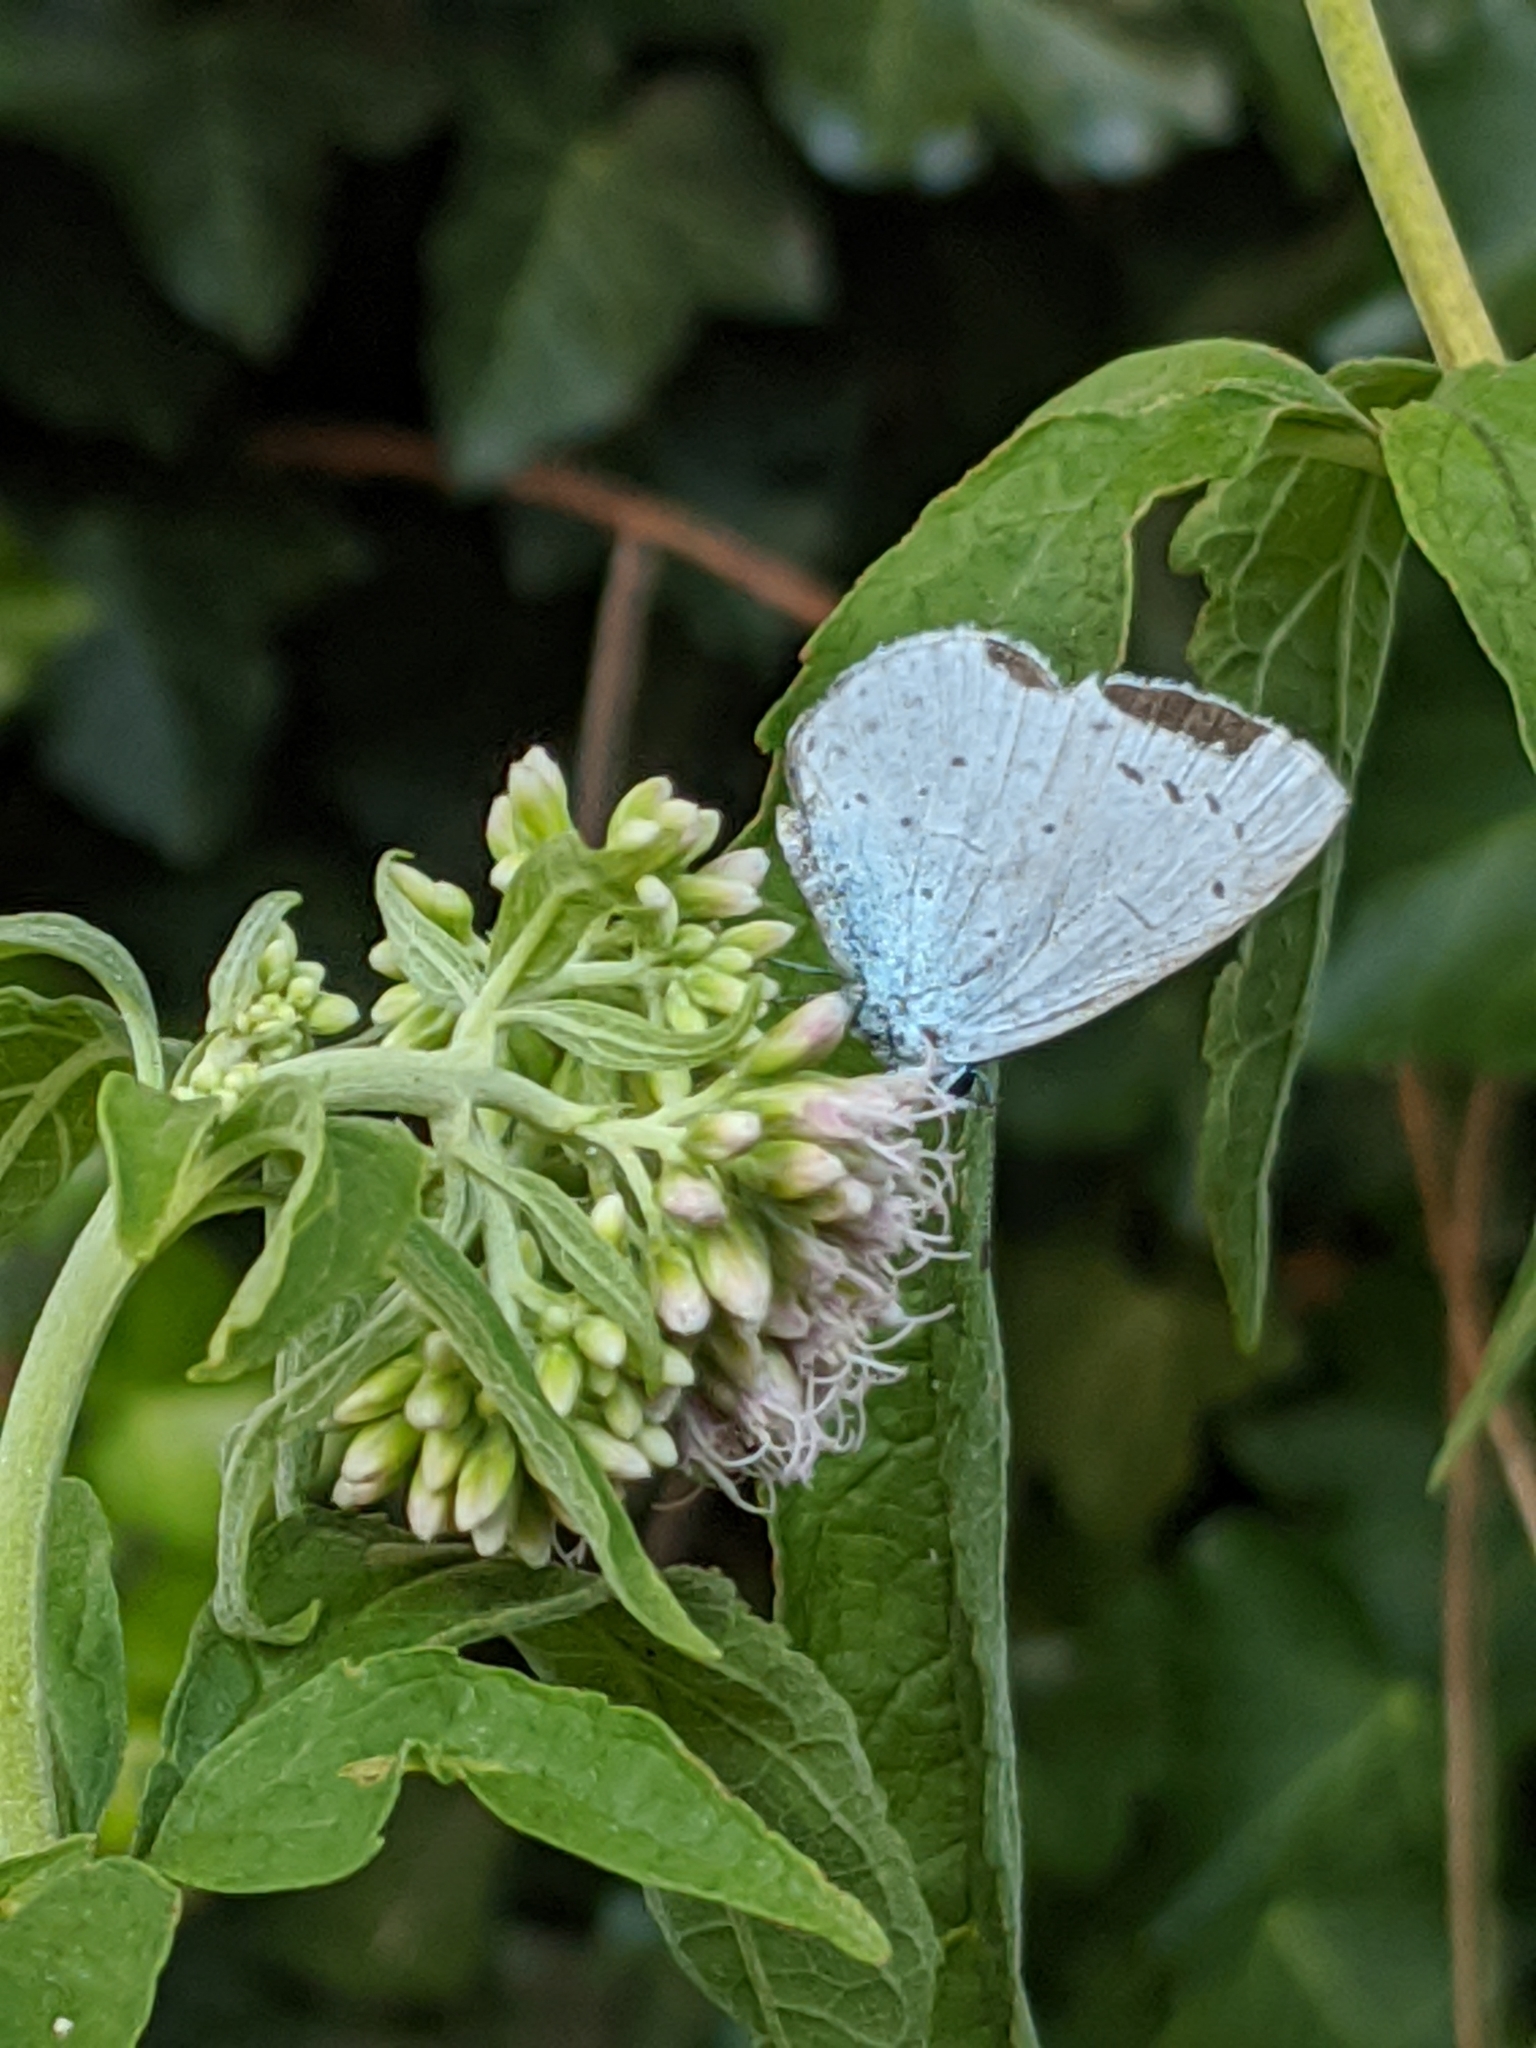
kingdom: Animalia
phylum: Arthropoda
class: Insecta
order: Lepidoptera
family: Lycaenidae
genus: Celastrina
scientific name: Celastrina argiolus
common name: Holly blue
